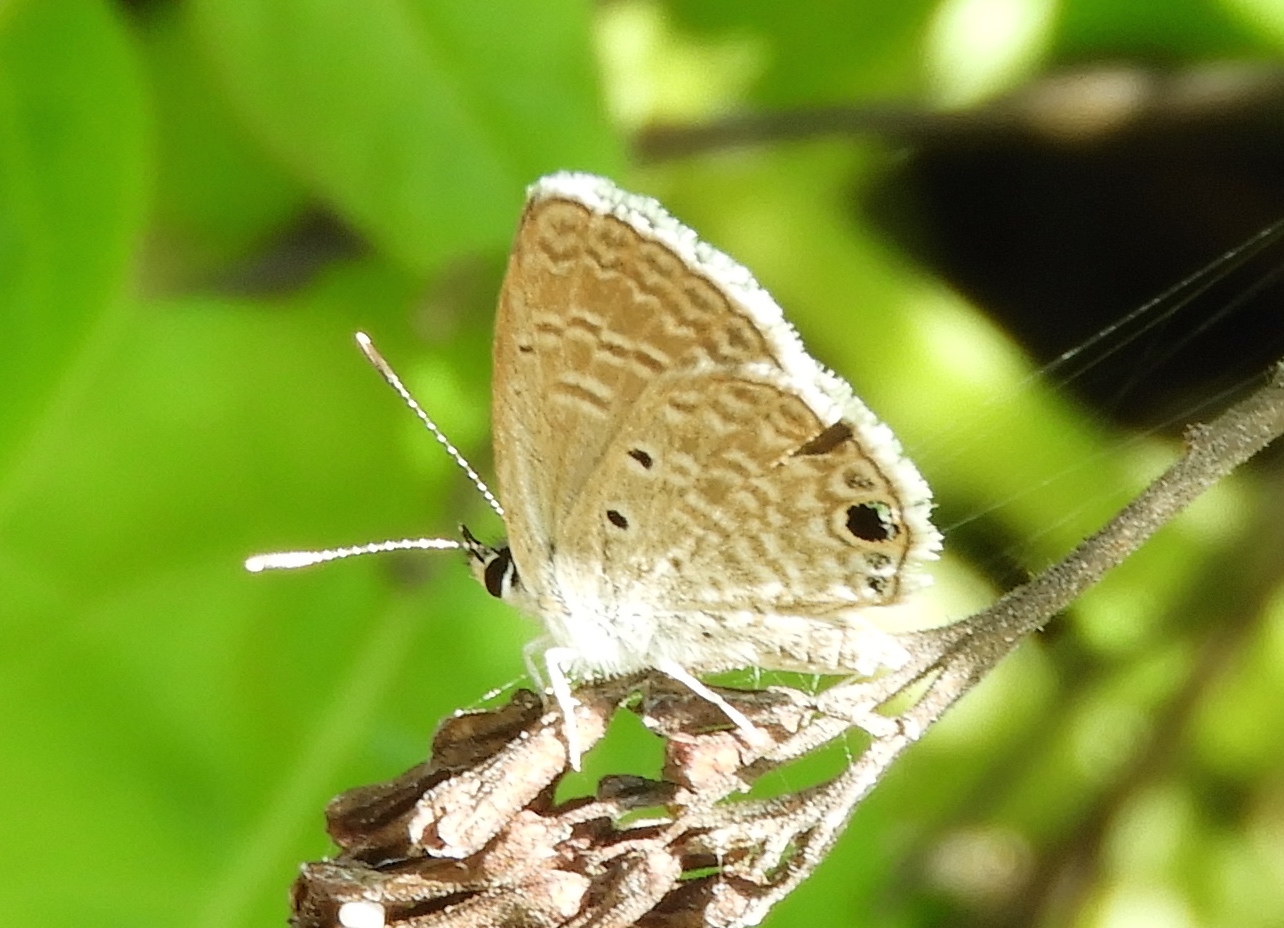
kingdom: Animalia
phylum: Arthropoda
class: Insecta
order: Lepidoptera
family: Lycaenidae
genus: Hemiargus
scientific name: Hemiargus ceraunus
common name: Ceraunus blue
